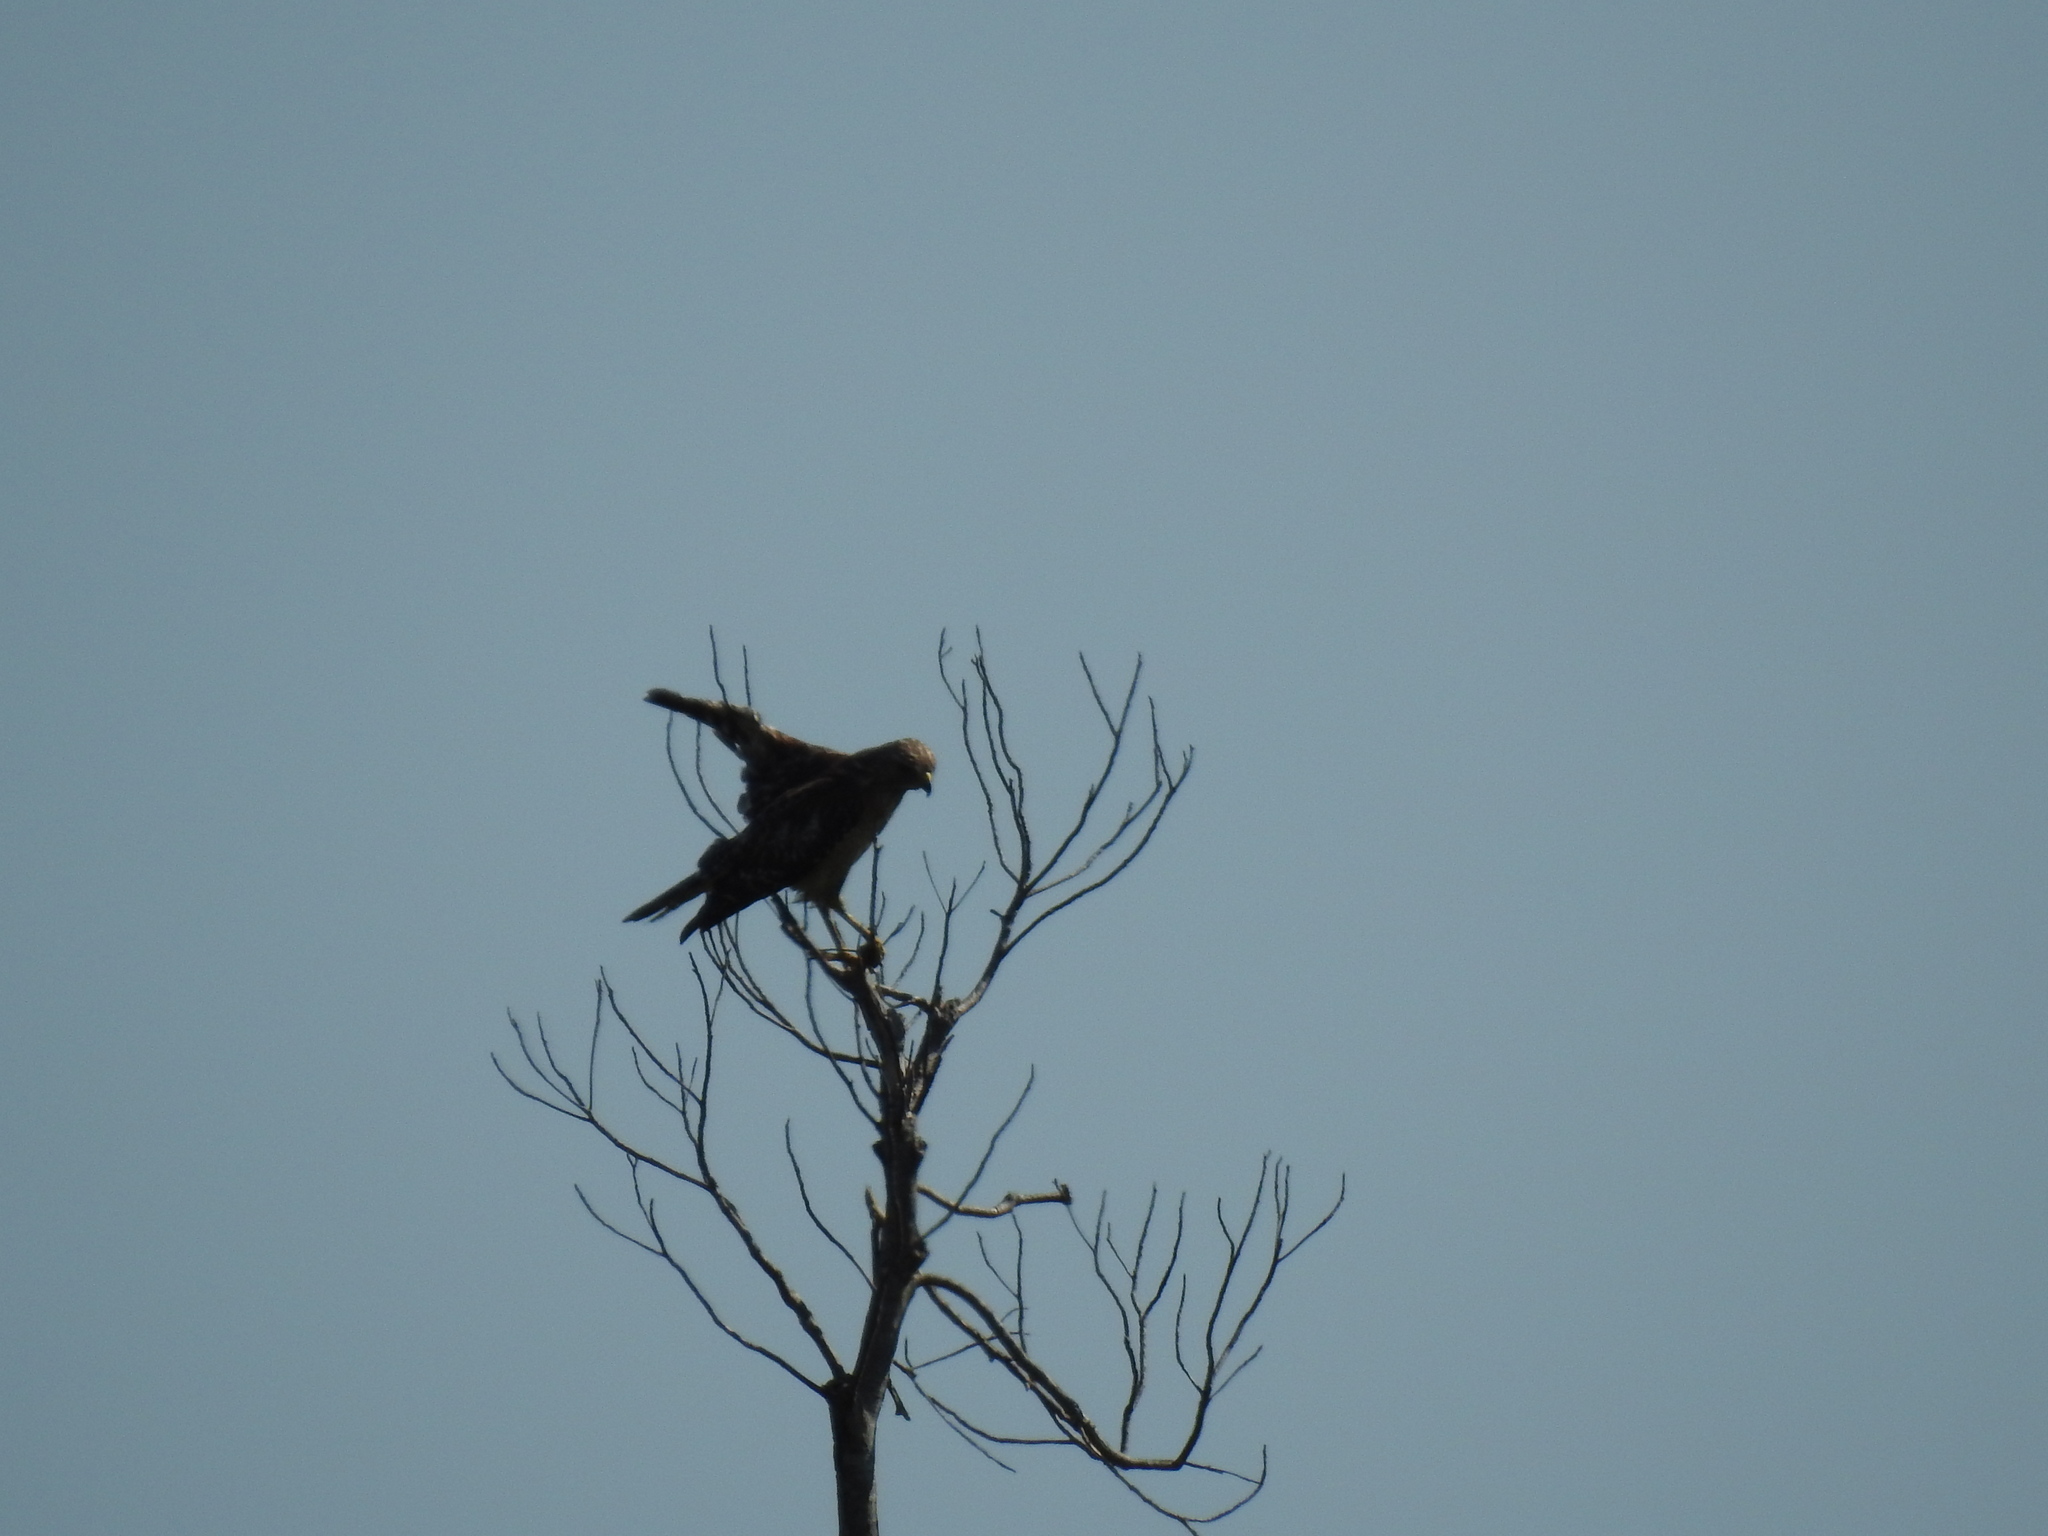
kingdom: Animalia
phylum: Chordata
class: Aves
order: Accipitriformes
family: Accipitridae
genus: Buteo
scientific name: Buteo lineatus
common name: Red-shouldered hawk
